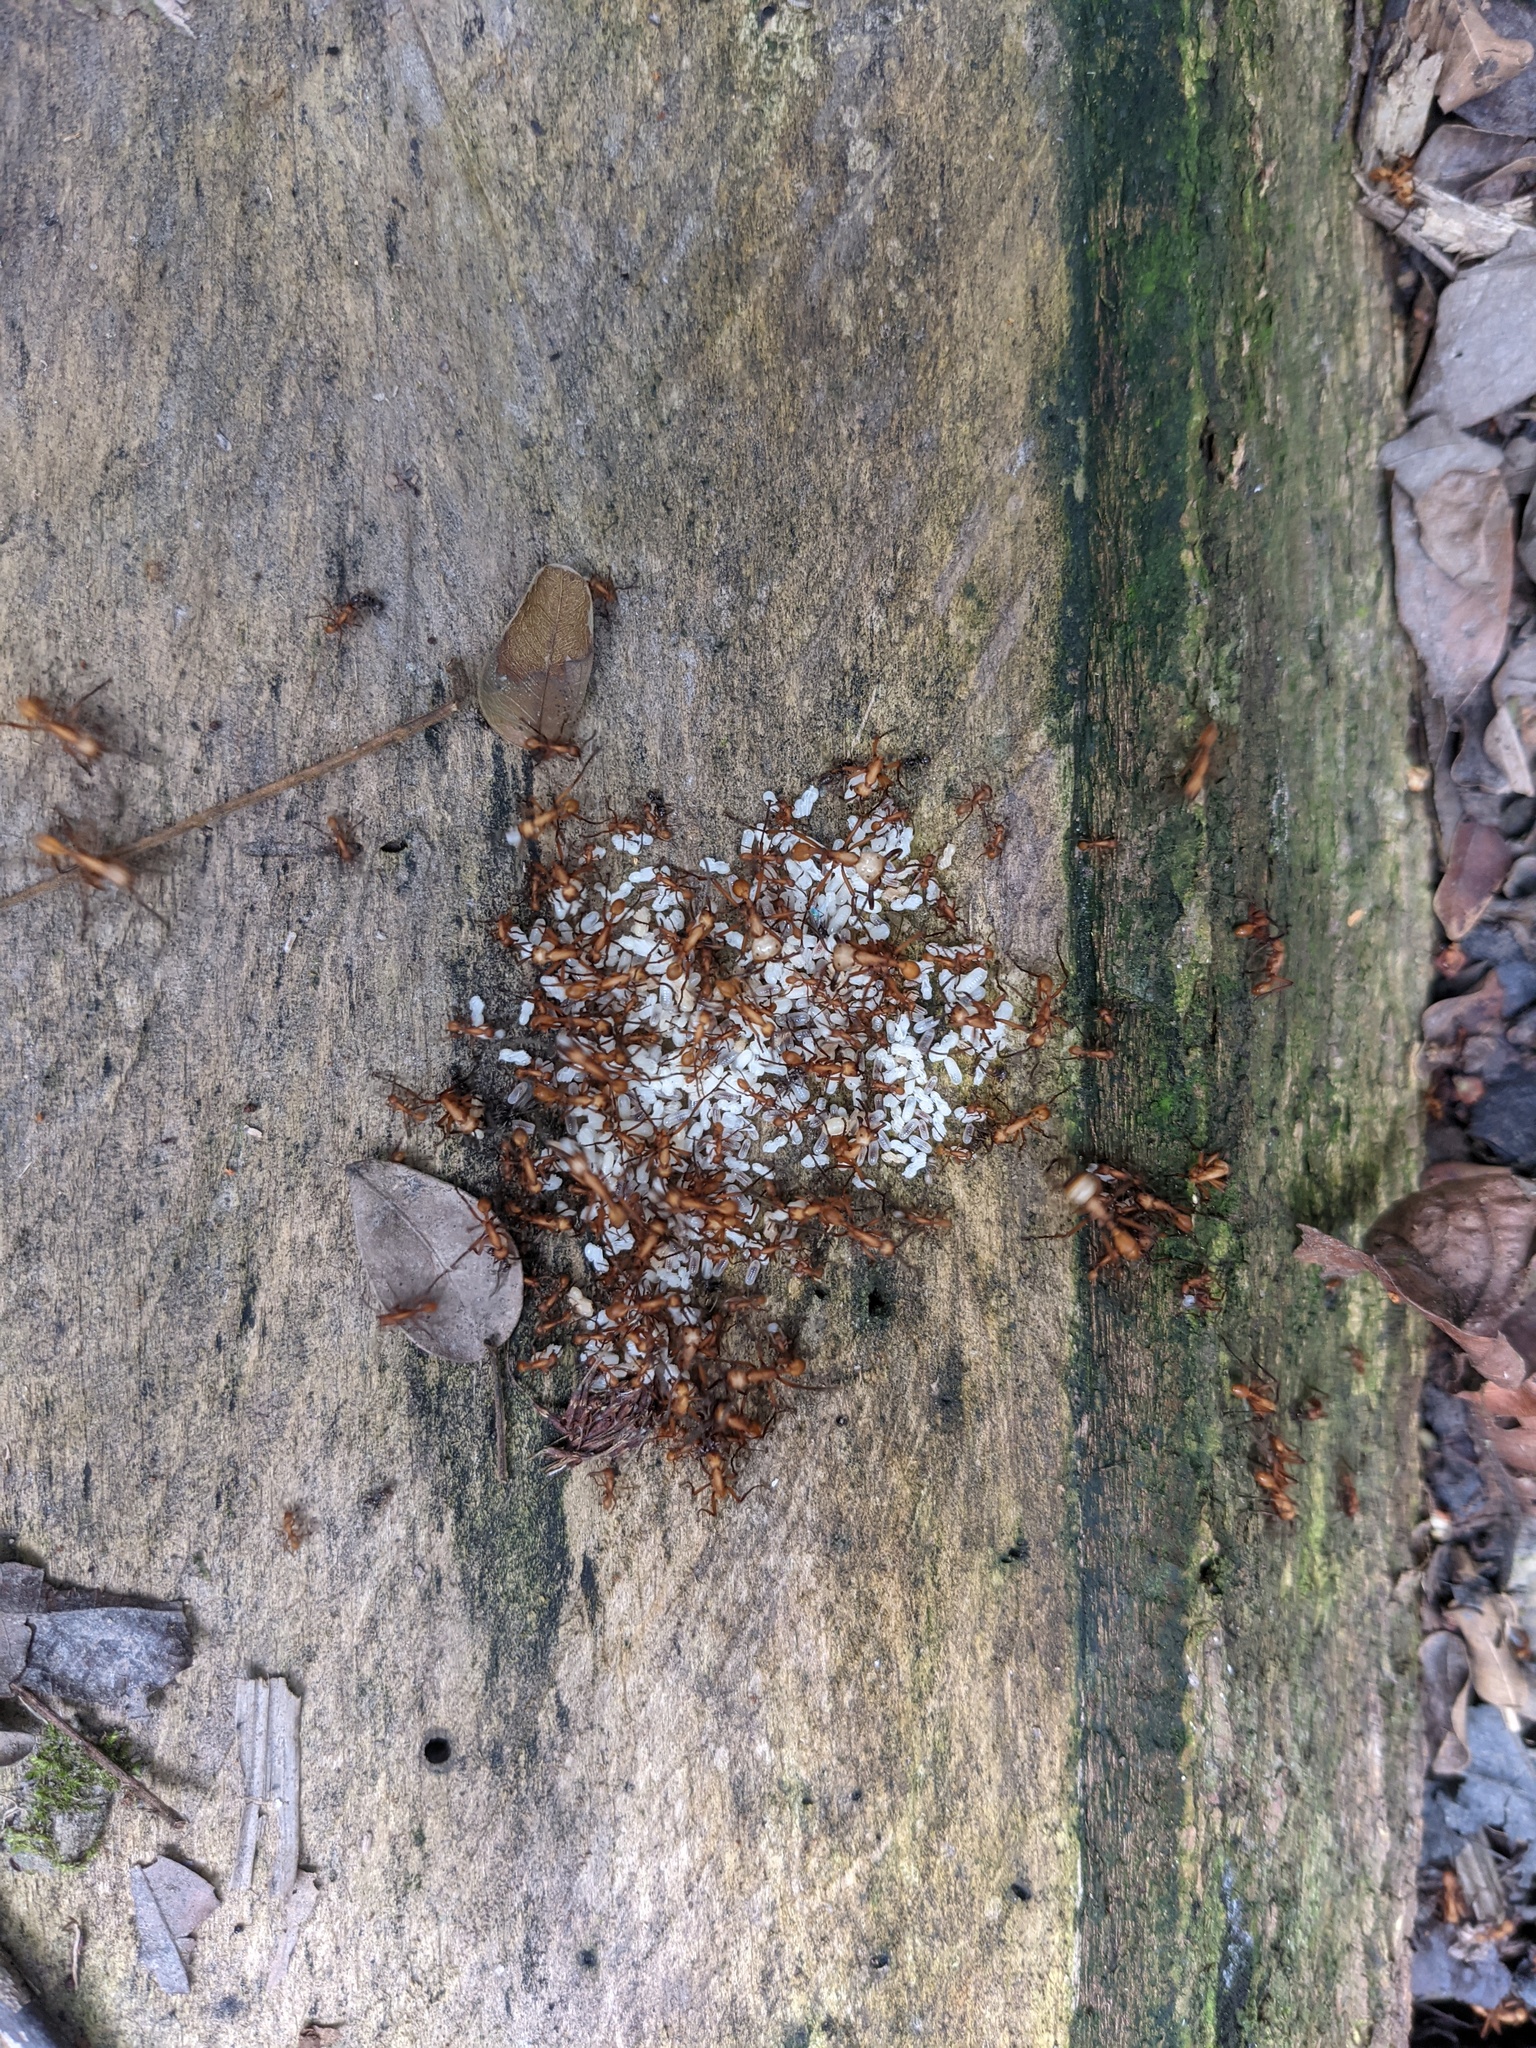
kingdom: Animalia
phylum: Arthropoda
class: Insecta
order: Hymenoptera
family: Formicidae
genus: Eciton
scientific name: Eciton hamatum
